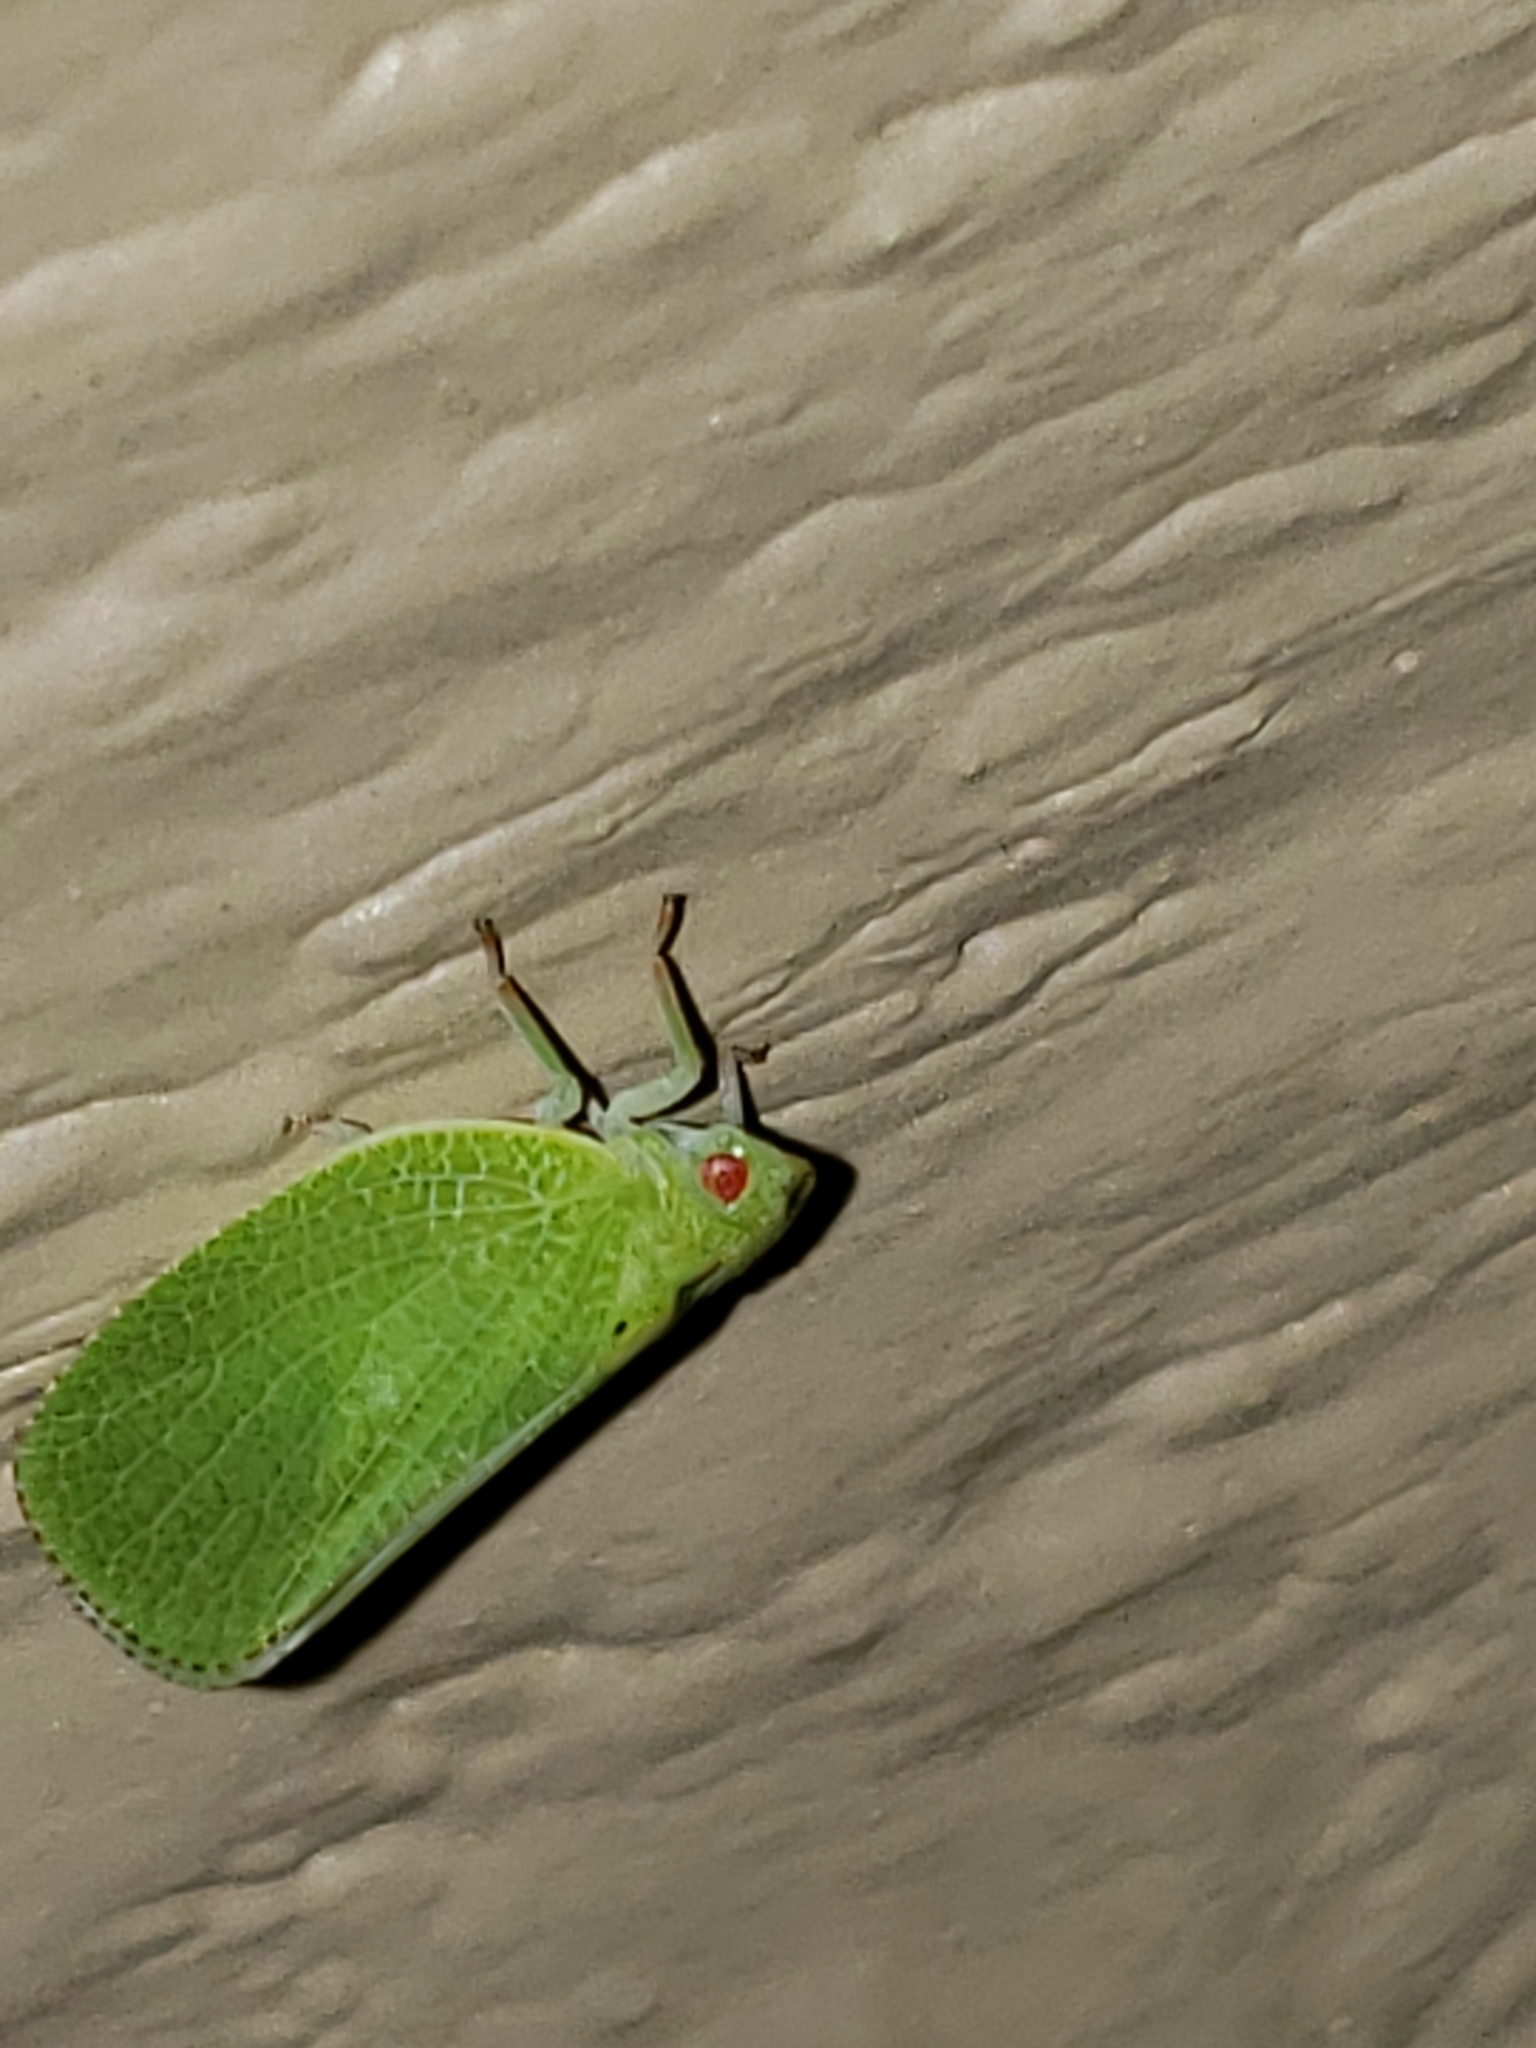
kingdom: Animalia
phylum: Arthropoda
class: Insecta
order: Hemiptera
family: Acanaloniidae
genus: Acanalonia
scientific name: Acanalonia conica
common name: Green cone-headed planthopper
